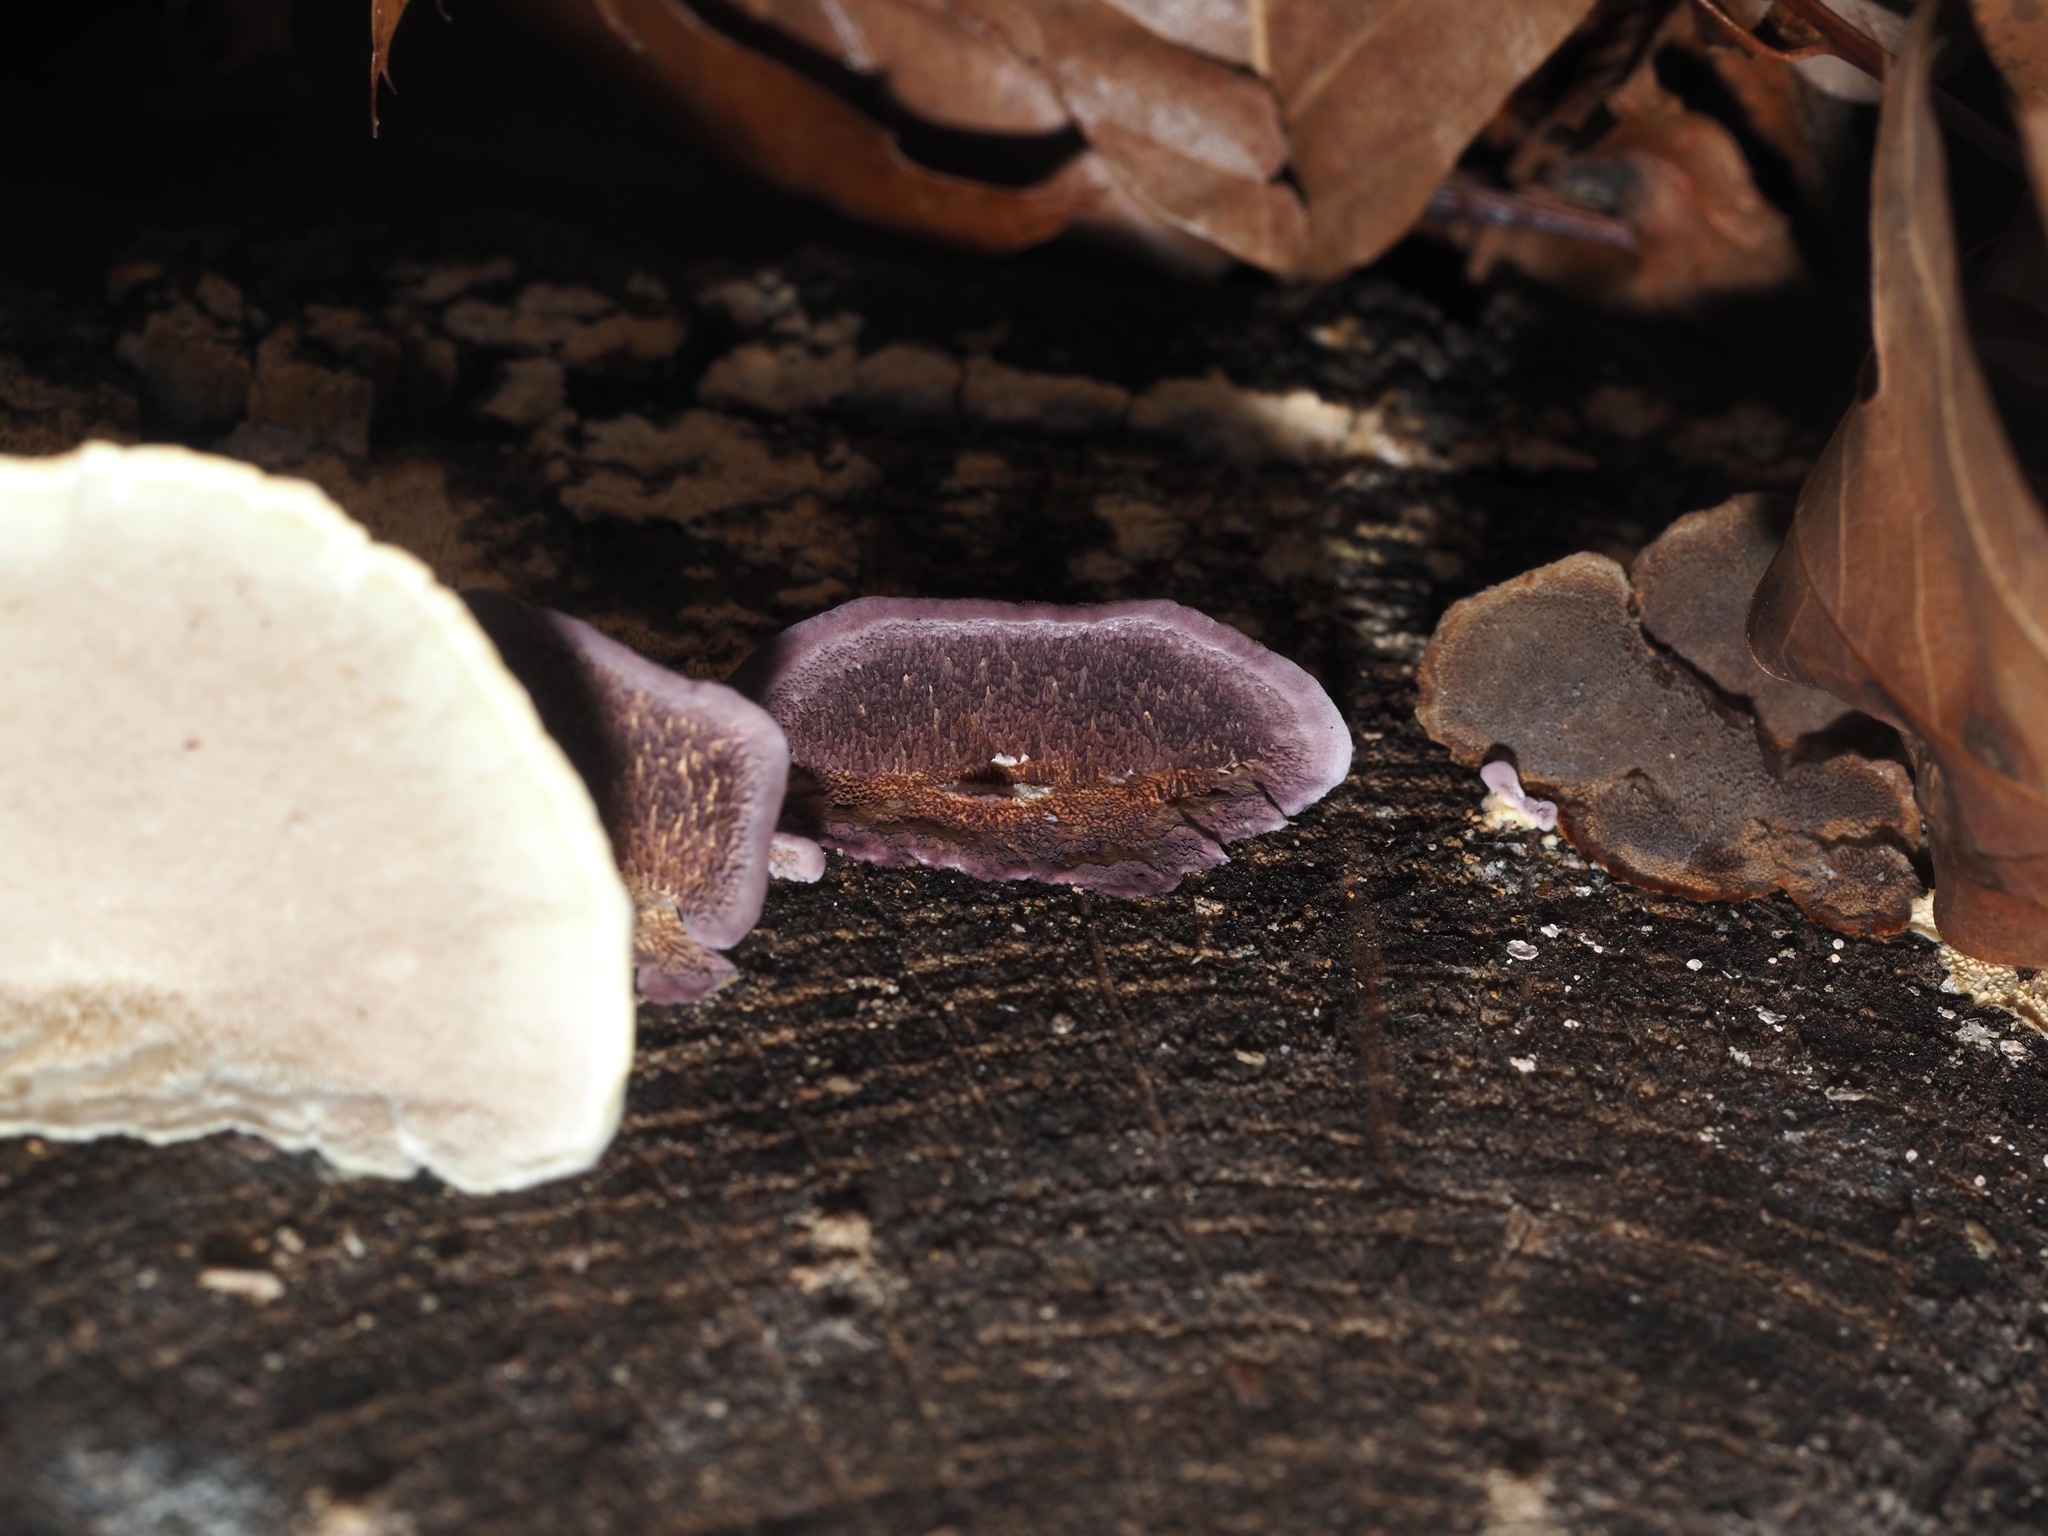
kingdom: Fungi
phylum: Basidiomycota
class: Agaricomycetes
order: Hymenochaetales
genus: Trichaptum
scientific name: Trichaptum biforme
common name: Violet-toothed polypore
